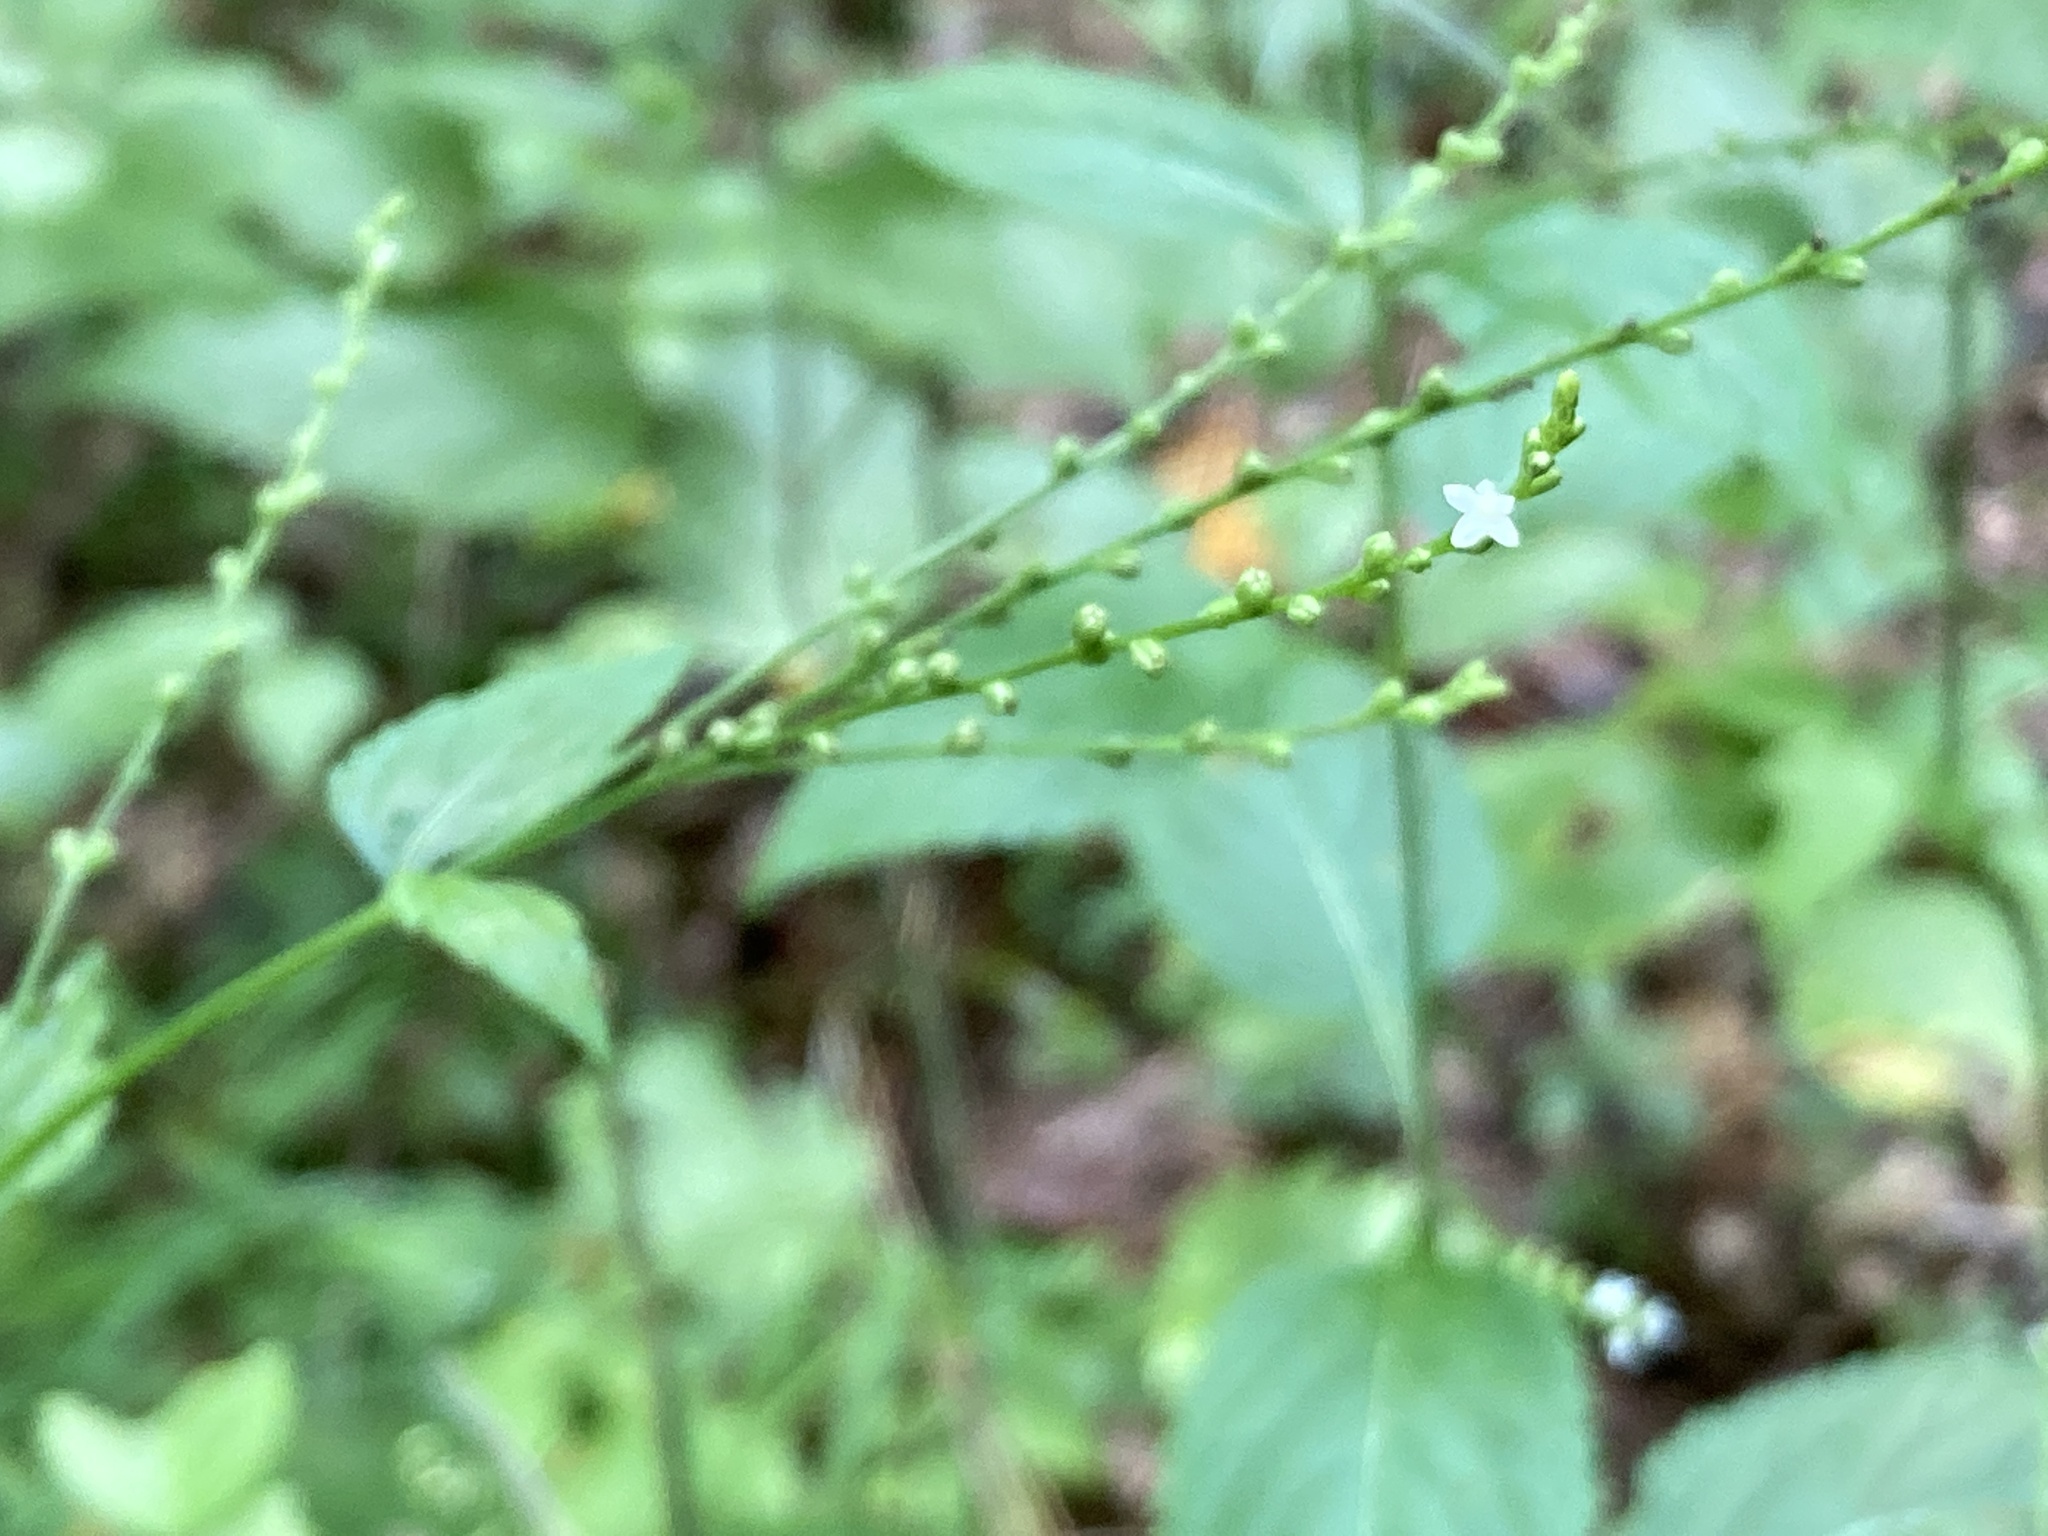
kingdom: Plantae
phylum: Tracheophyta
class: Magnoliopsida
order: Lamiales
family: Verbenaceae
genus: Verbena
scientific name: Verbena urticifolia
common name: Nettle-leaved vervain
